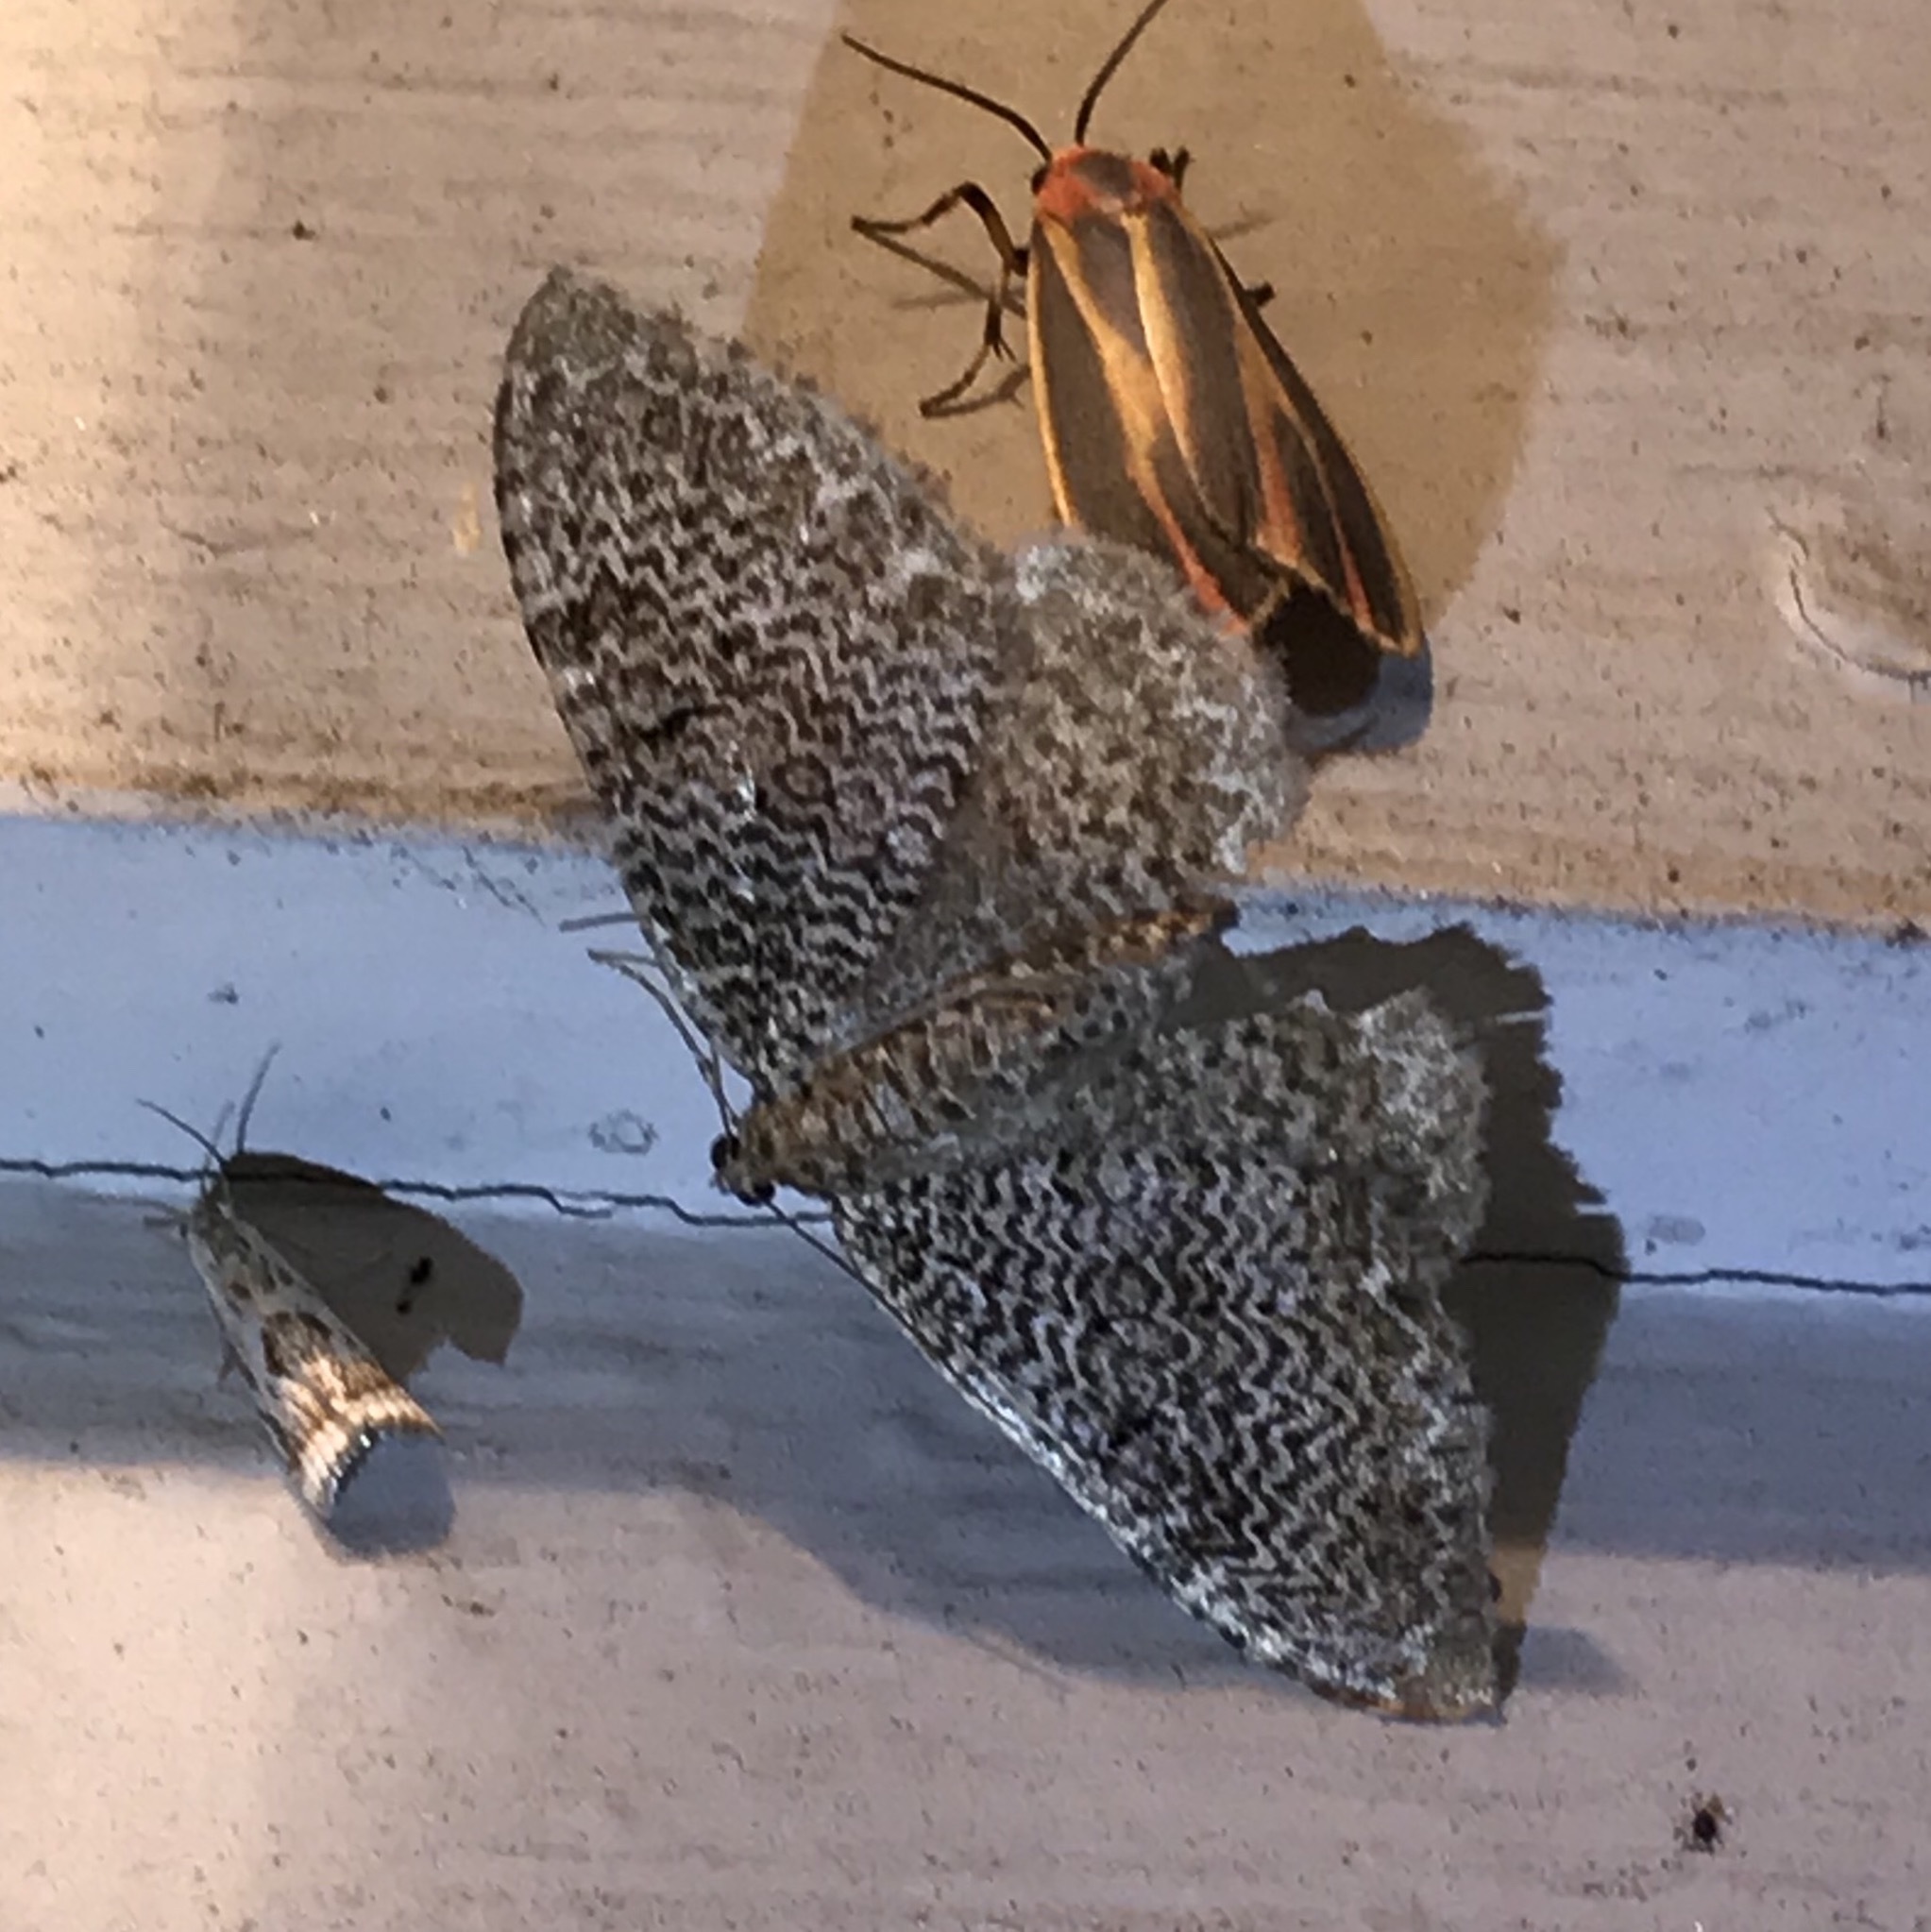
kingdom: Animalia
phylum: Arthropoda
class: Insecta
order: Lepidoptera
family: Geometridae
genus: Rheumaptera
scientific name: Rheumaptera
